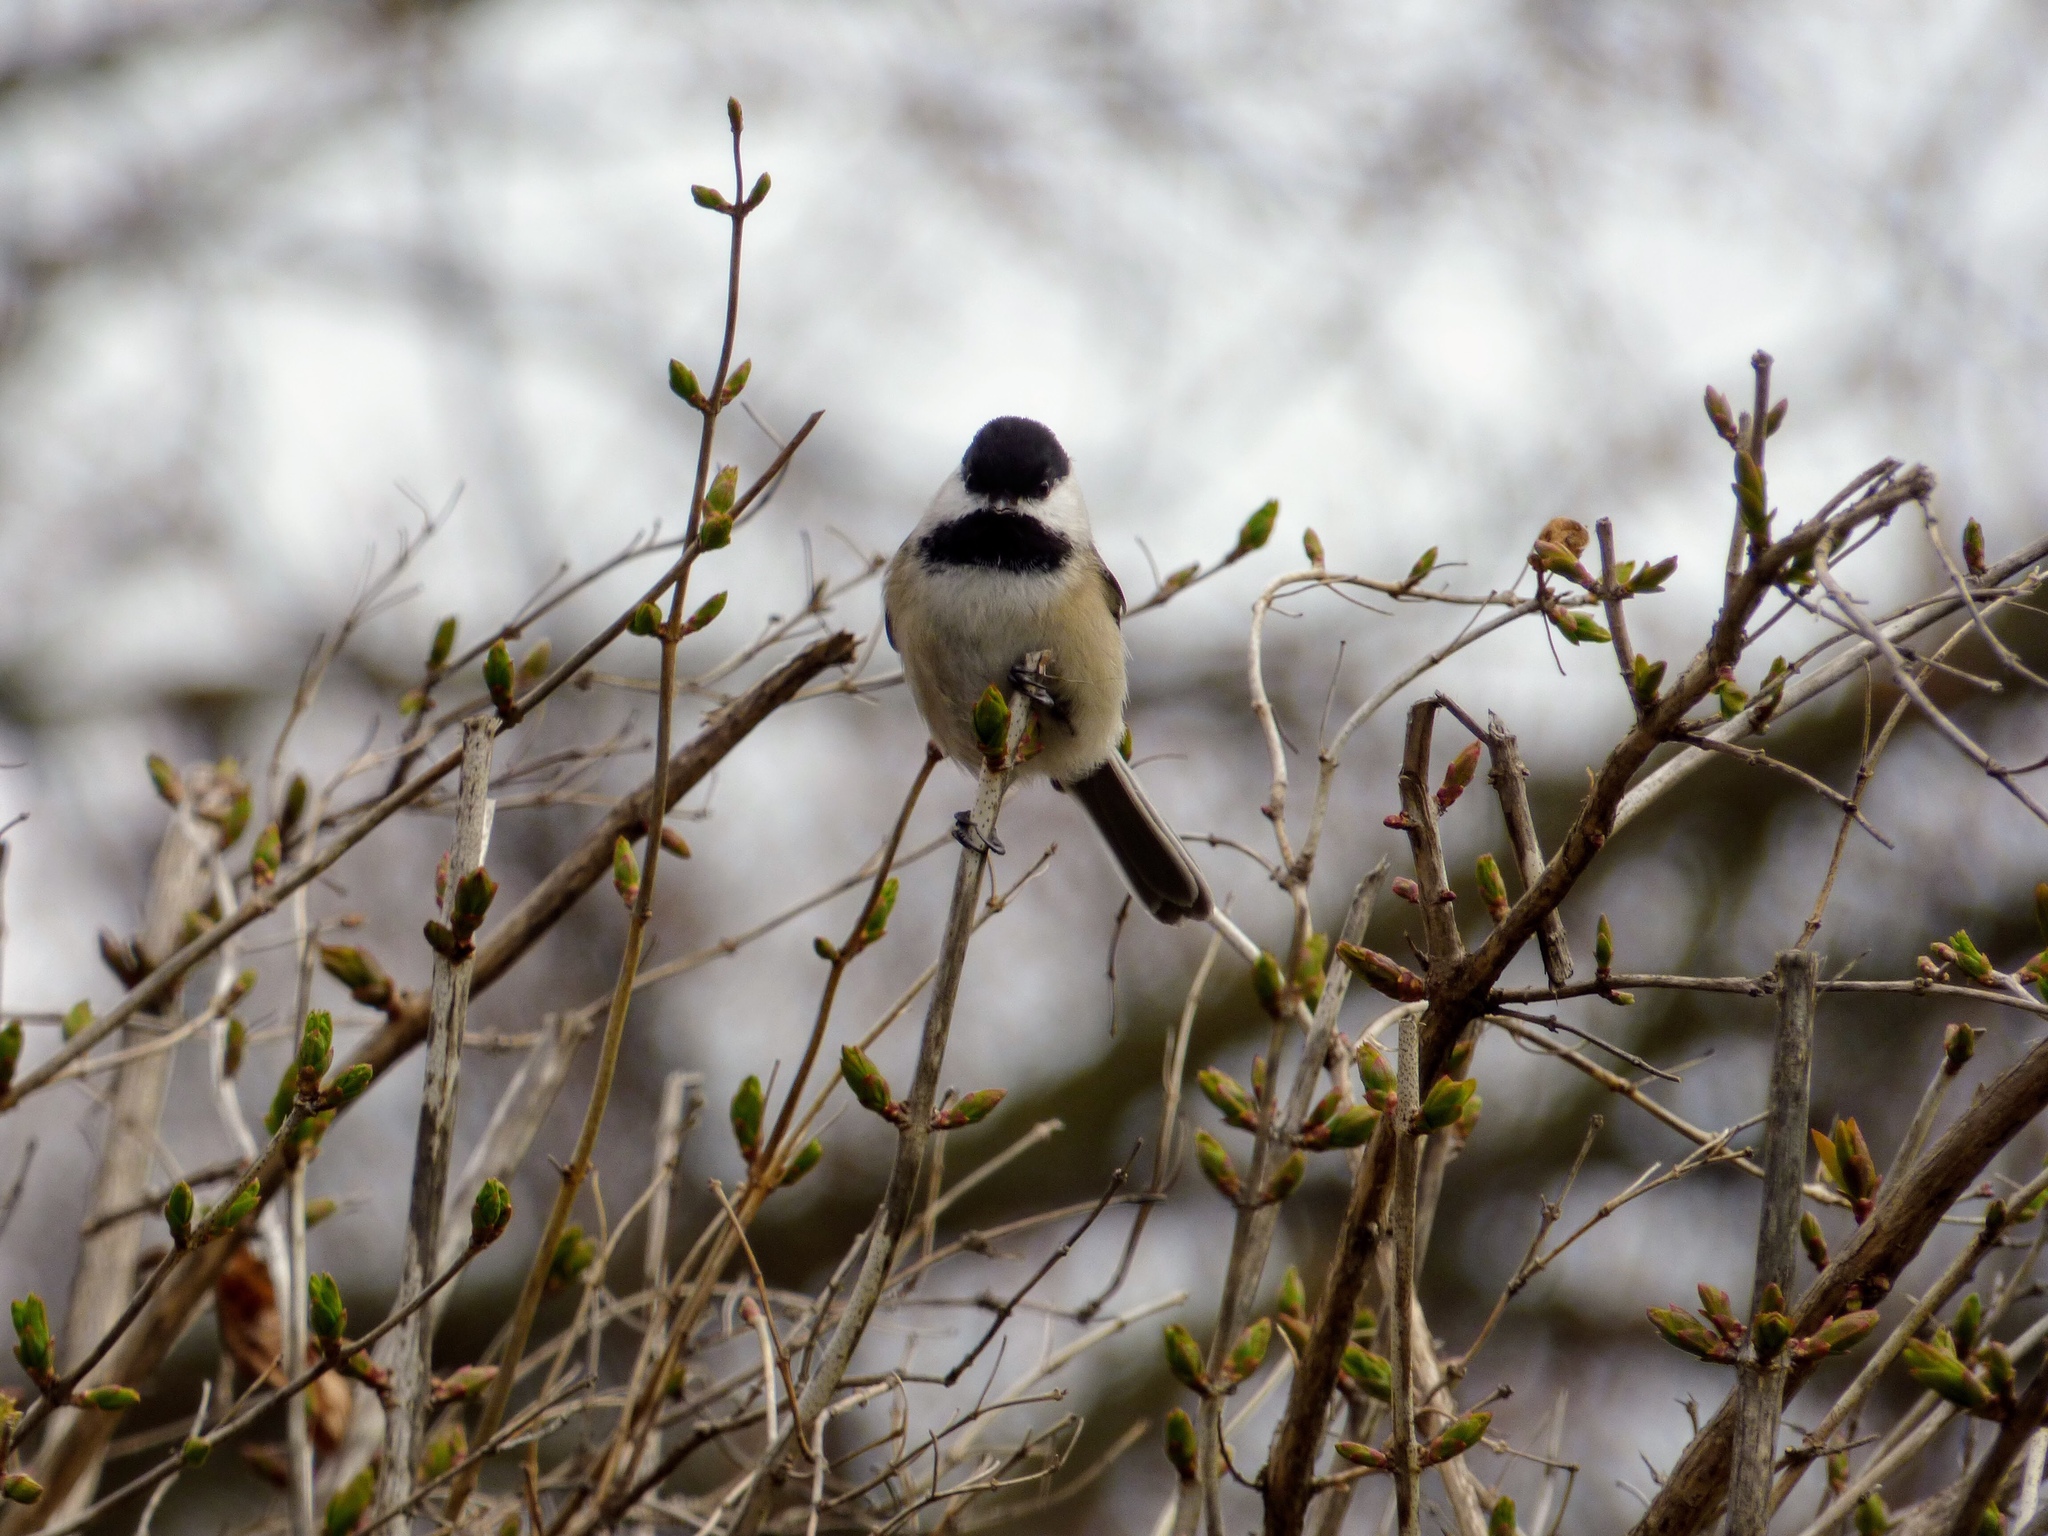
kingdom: Animalia
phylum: Chordata
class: Aves
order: Passeriformes
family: Paridae
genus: Poecile
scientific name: Poecile atricapillus
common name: Black-capped chickadee
